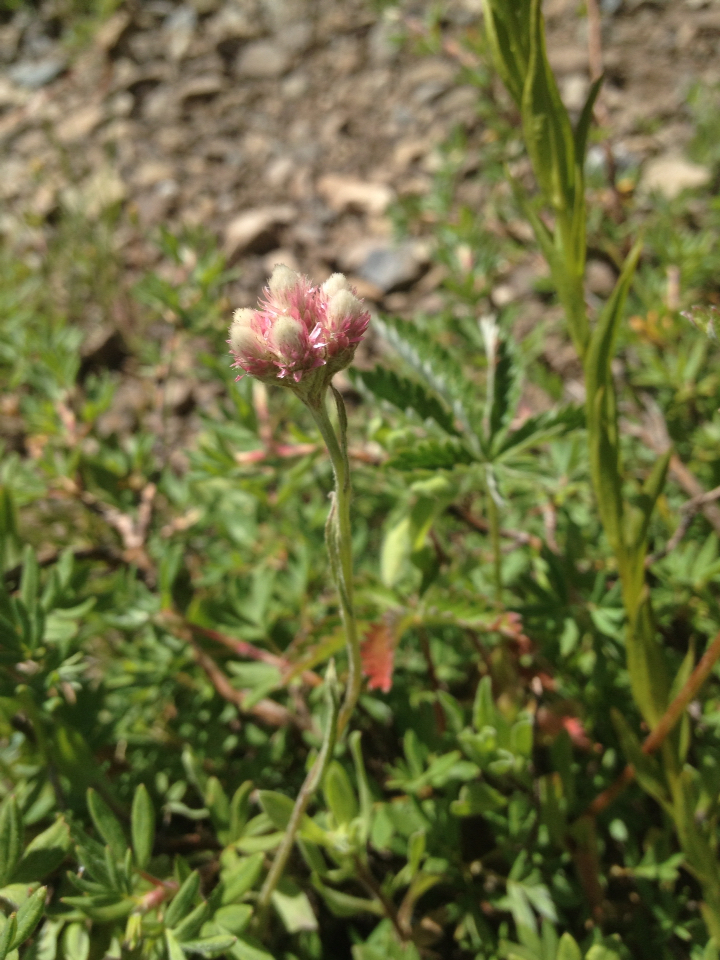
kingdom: Plantae
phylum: Tracheophyta
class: Magnoliopsida
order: Asterales
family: Asteraceae
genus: Antennaria
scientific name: Antennaria rosea
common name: Rosy pussytoes
